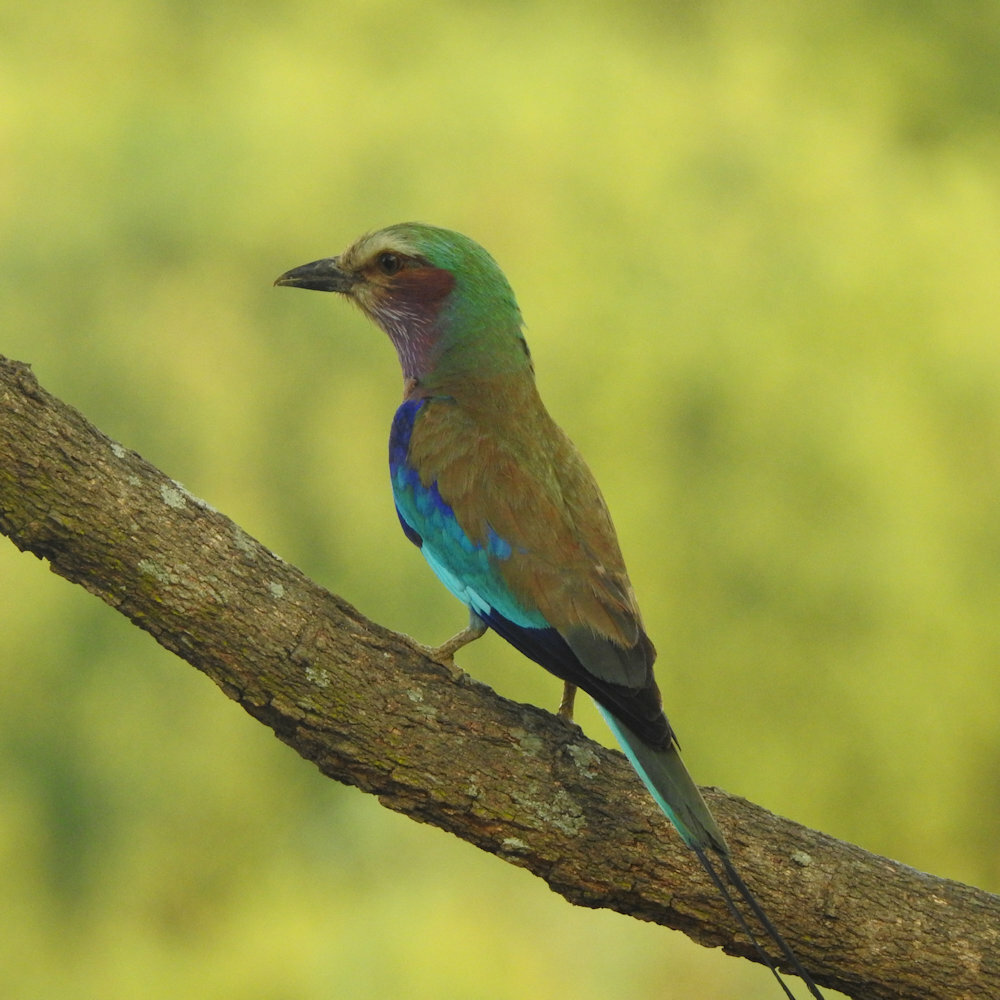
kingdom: Animalia
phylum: Chordata
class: Aves
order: Coraciiformes
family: Coraciidae
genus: Coracias
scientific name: Coracias caudatus
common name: Lilac-breasted roller
